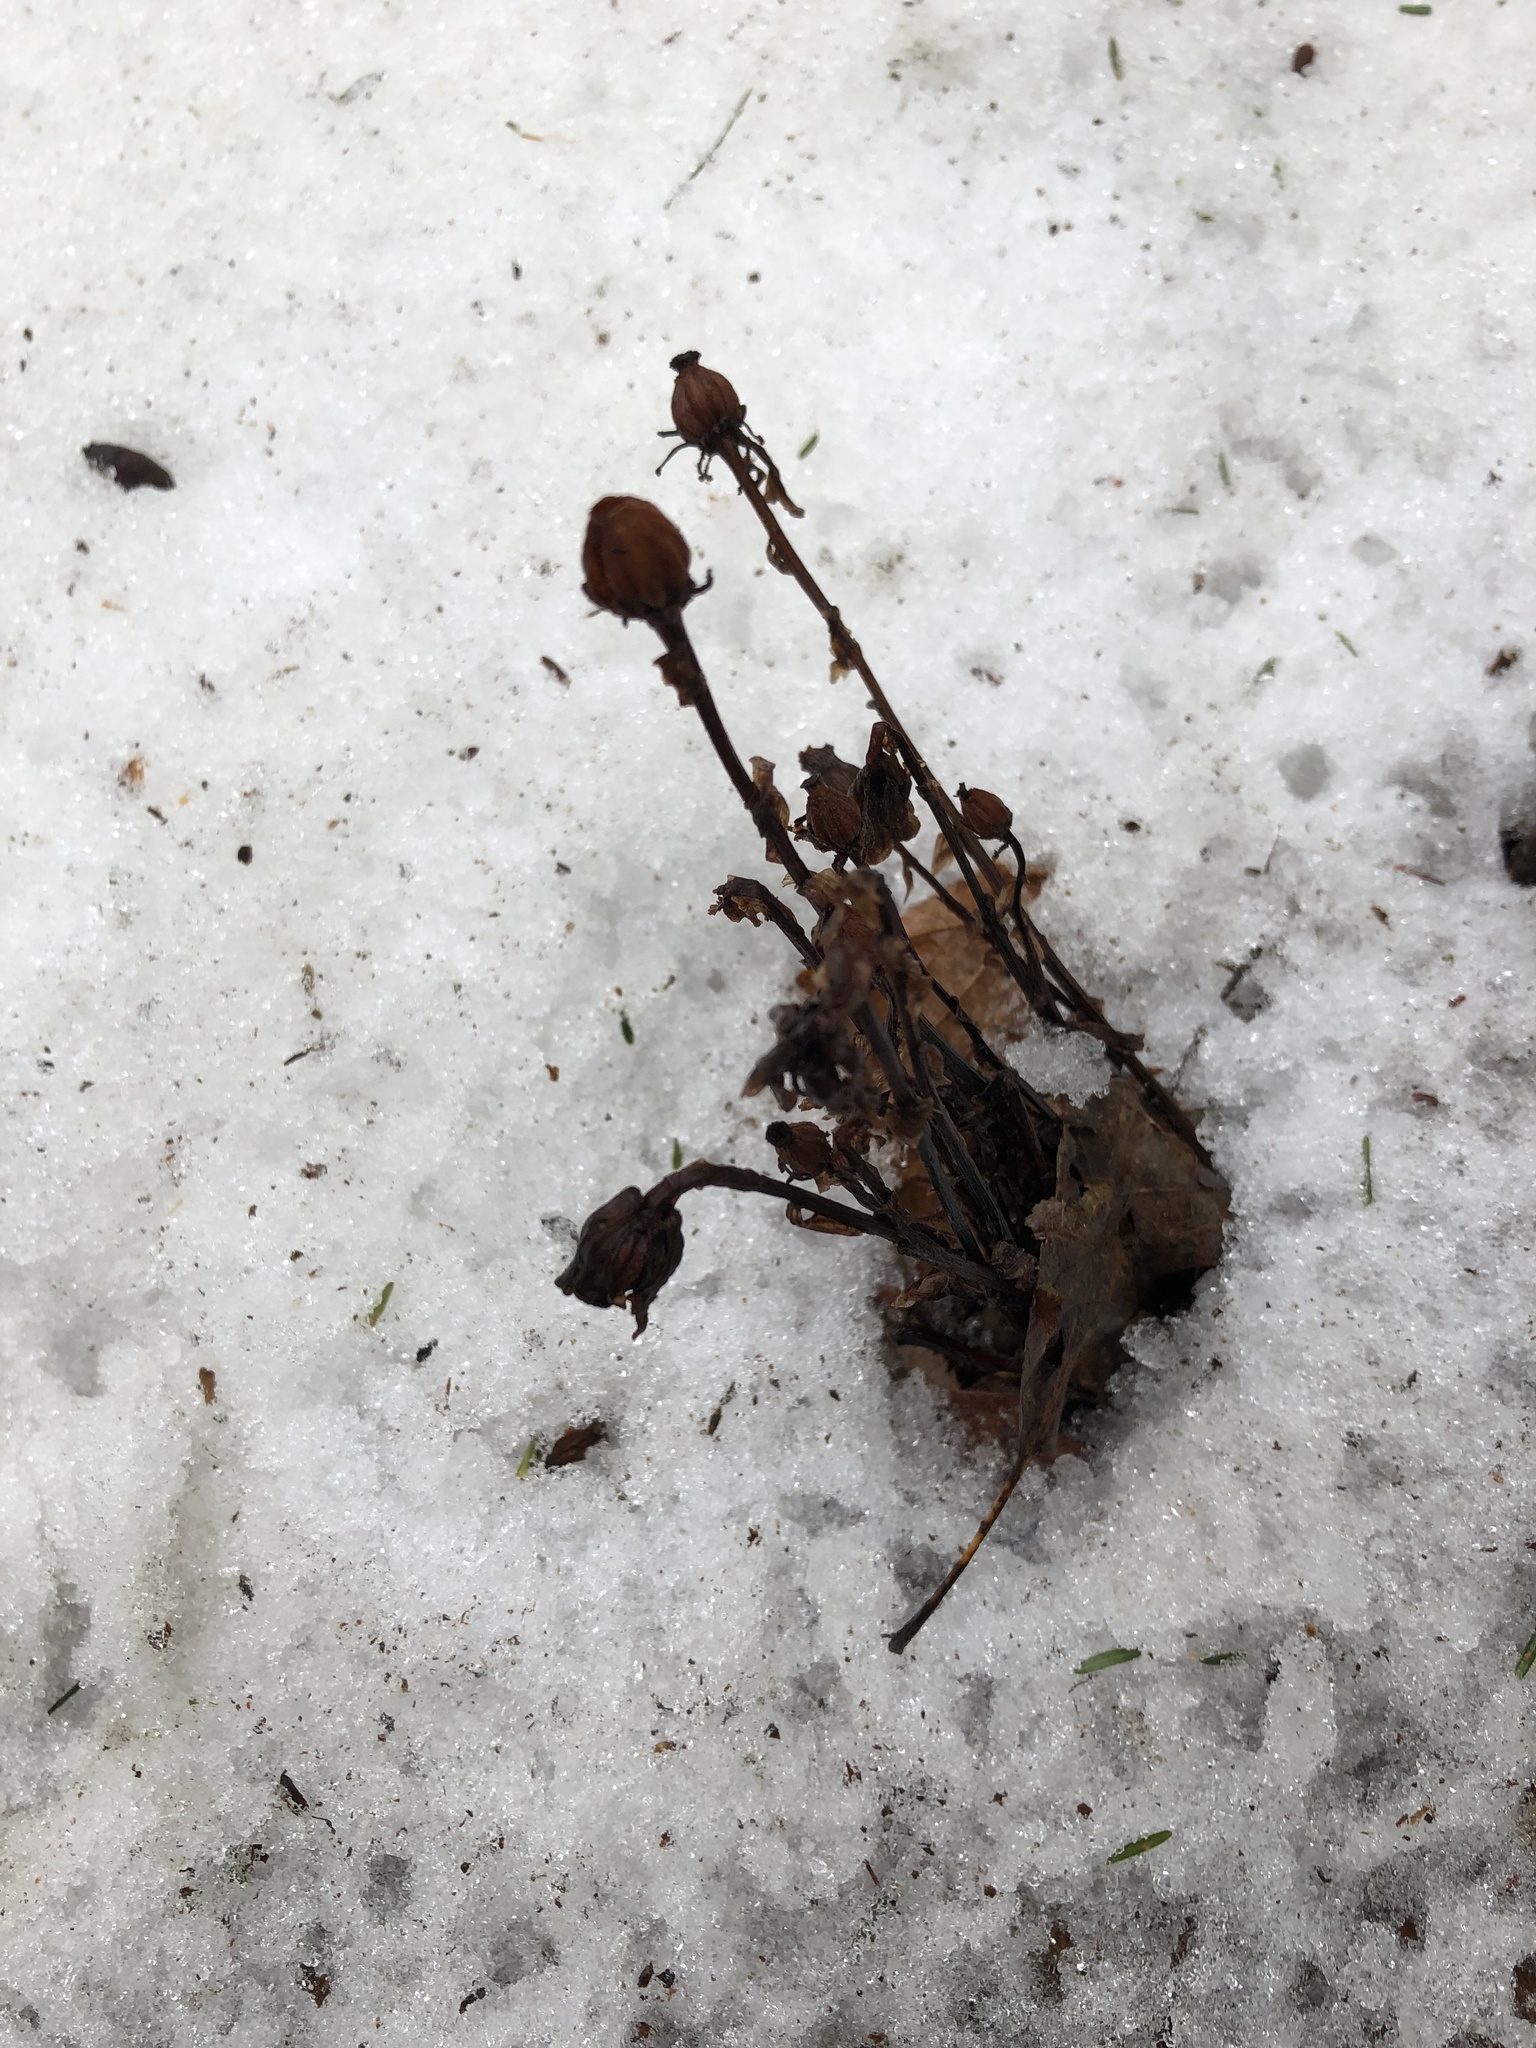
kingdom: Plantae
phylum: Tracheophyta
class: Magnoliopsida
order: Ericales
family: Ericaceae
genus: Monotropa
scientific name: Monotropa uniflora
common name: Convulsion root
